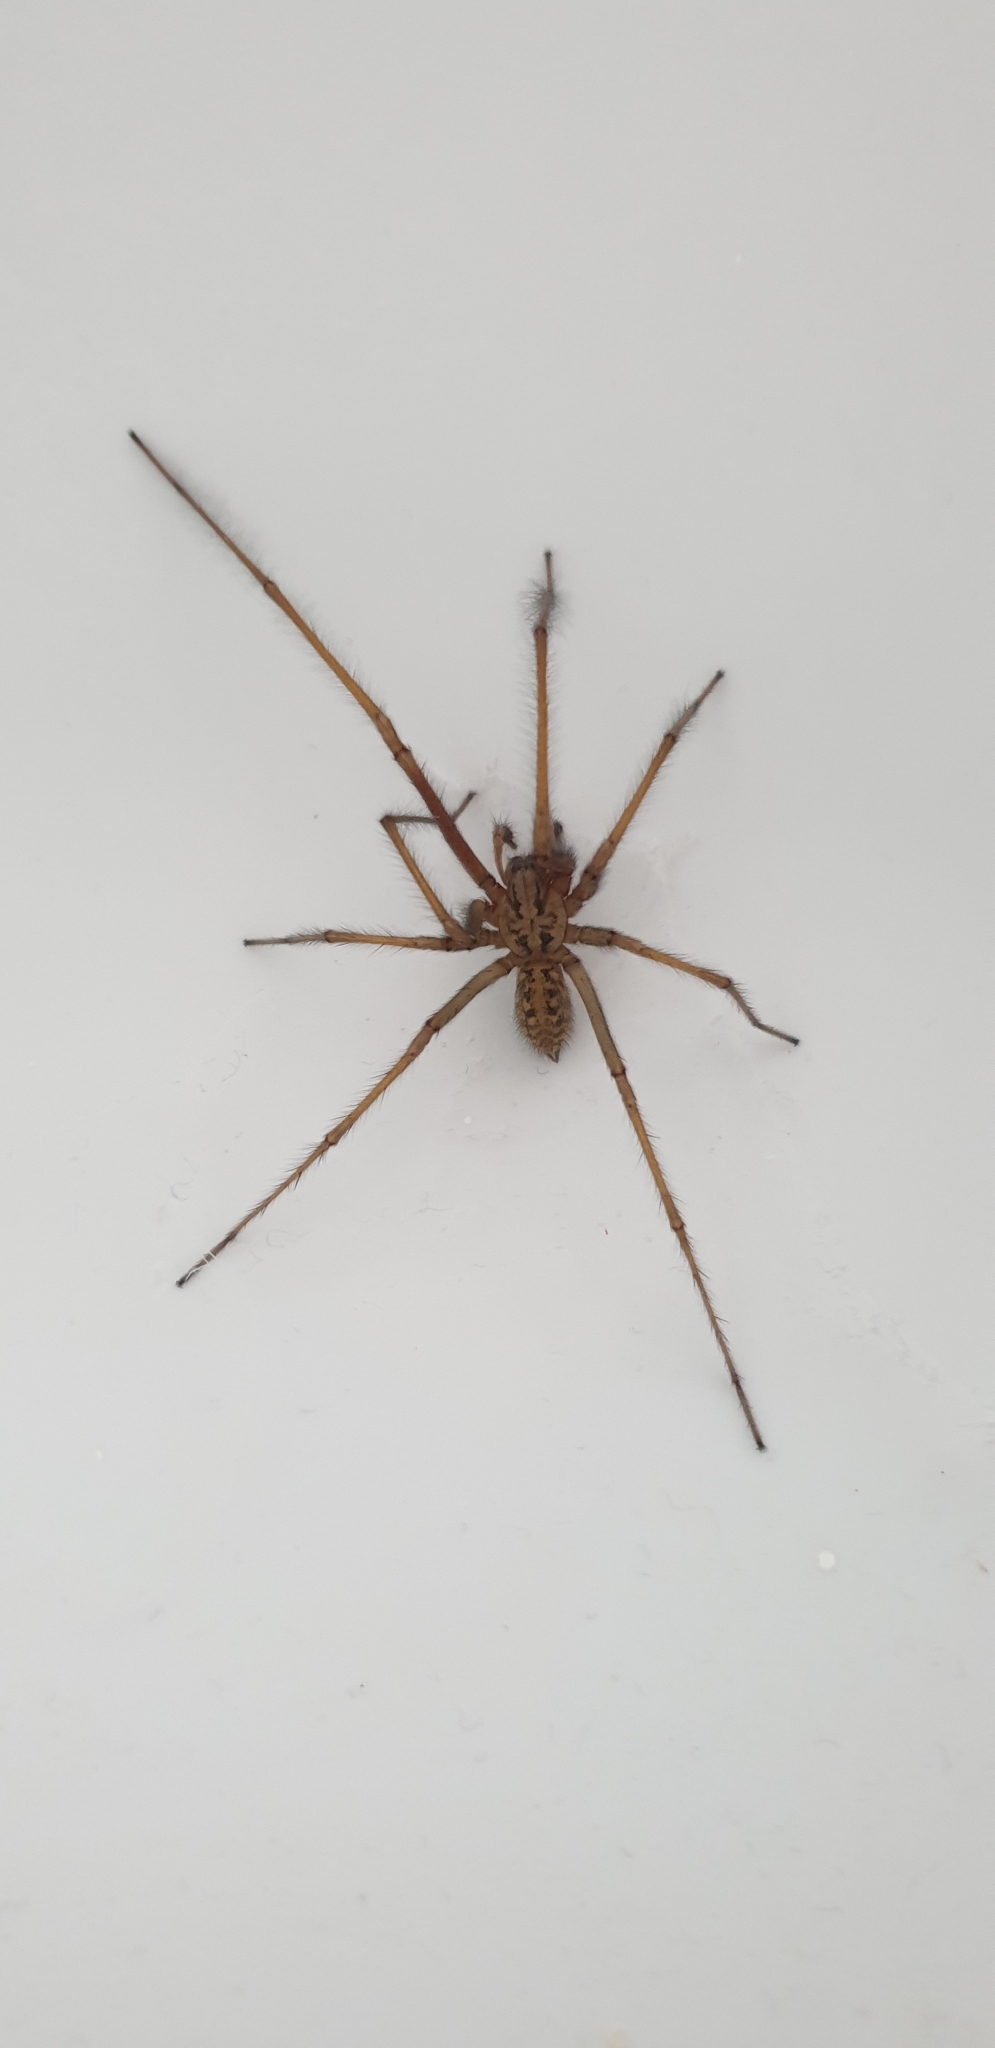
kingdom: Animalia
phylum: Arthropoda
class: Arachnida
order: Araneae
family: Agelenidae
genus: Eratigena
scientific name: Eratigena duellica
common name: Giant house spider
